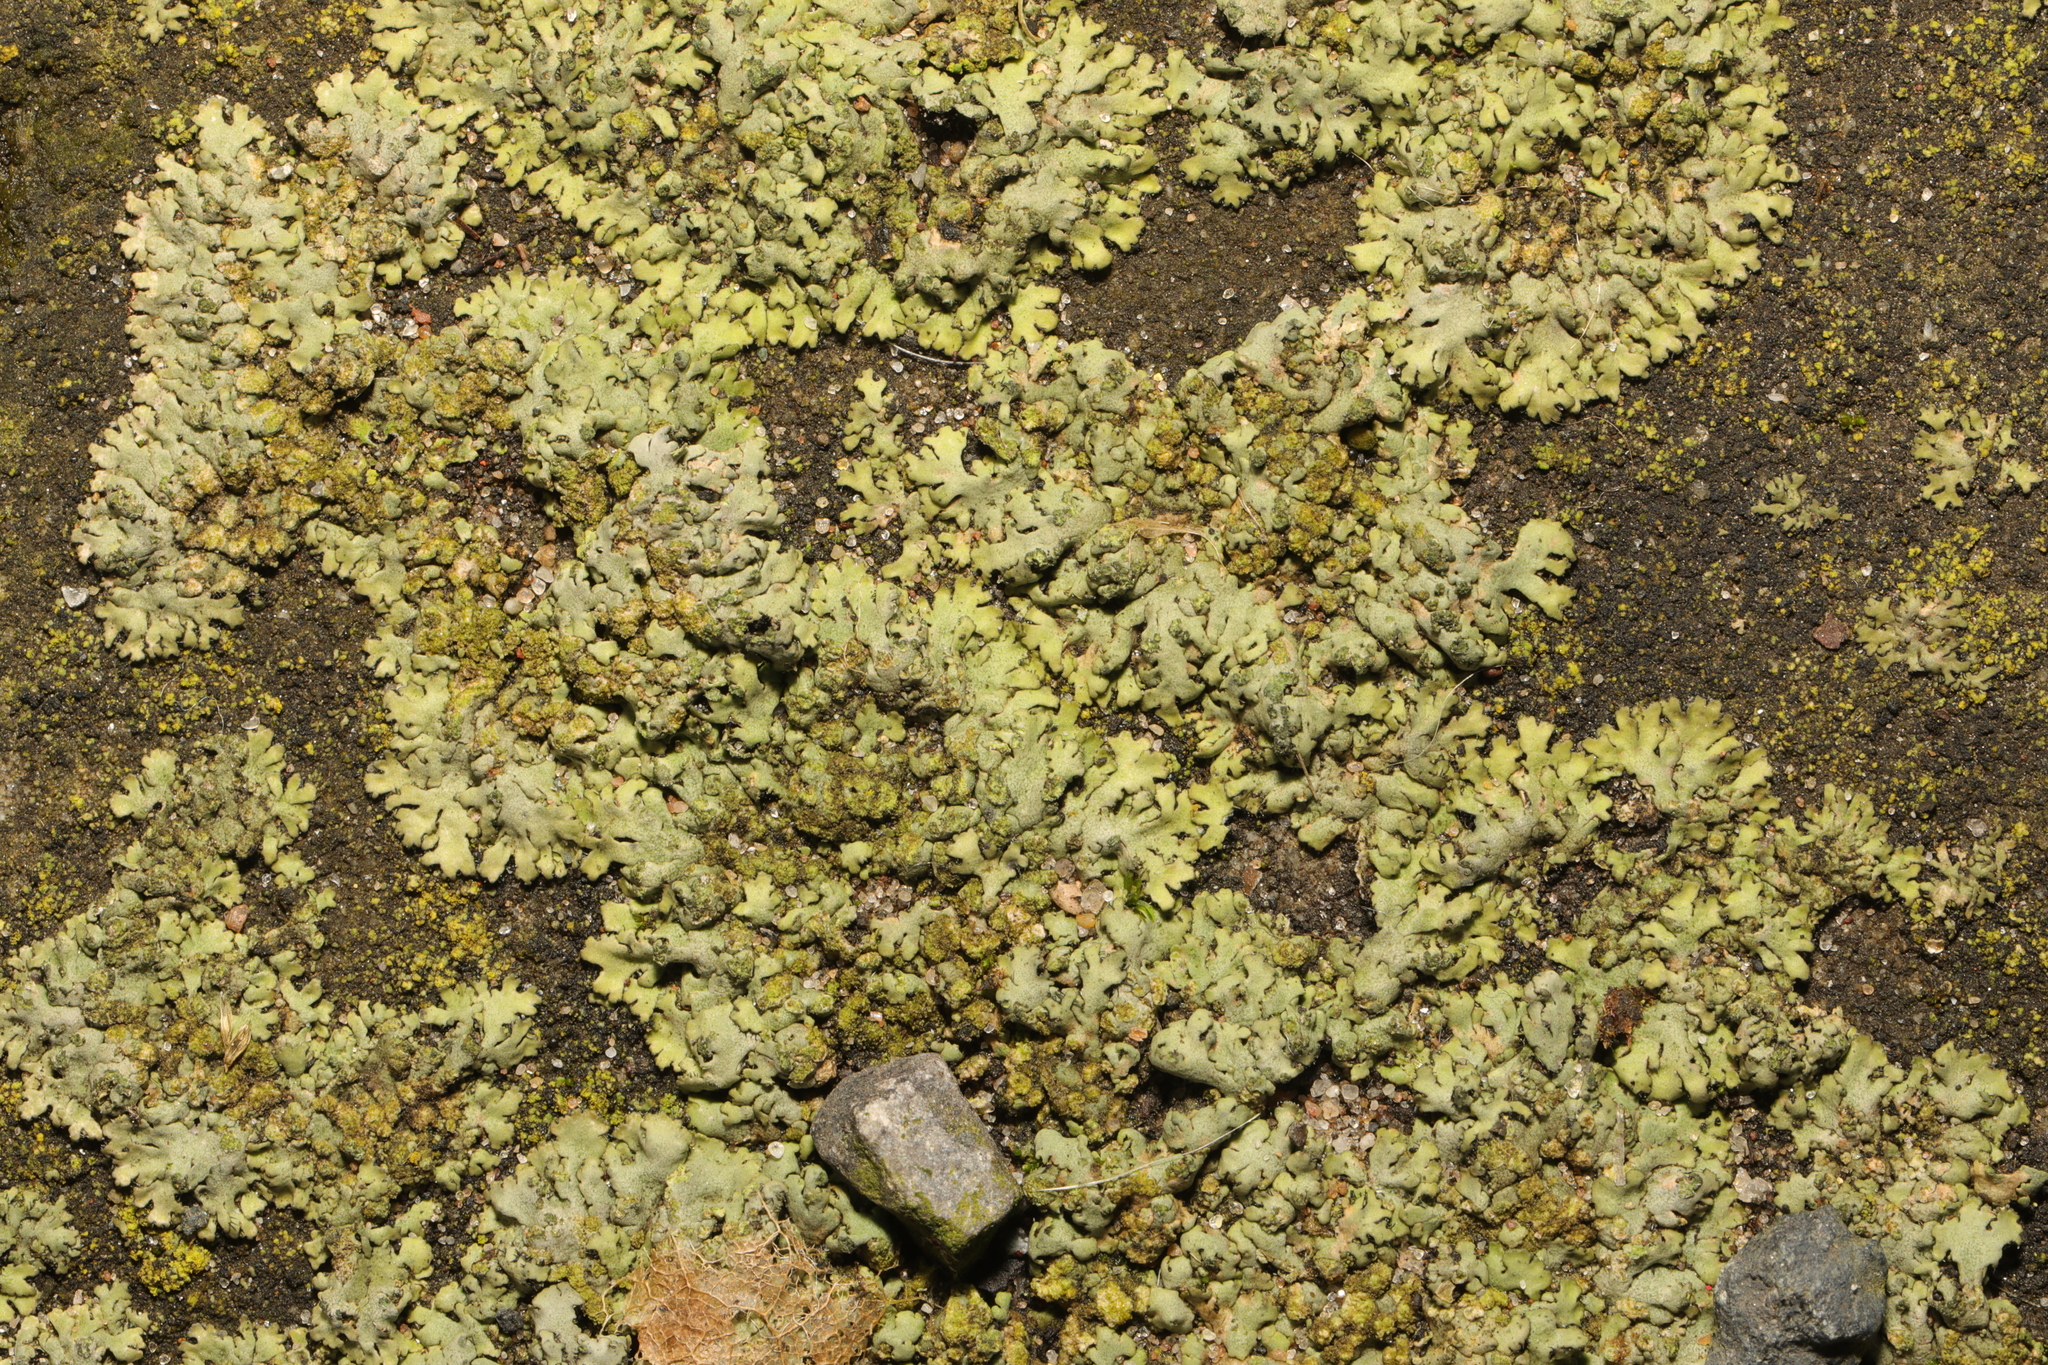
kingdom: Fungi
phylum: Ascomycota
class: Lecanoromycetes
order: Caliciales
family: Physciaceae
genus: Phaeophyscia
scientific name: Phaeophyscia orbicularis
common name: Mealy shadow lichen
